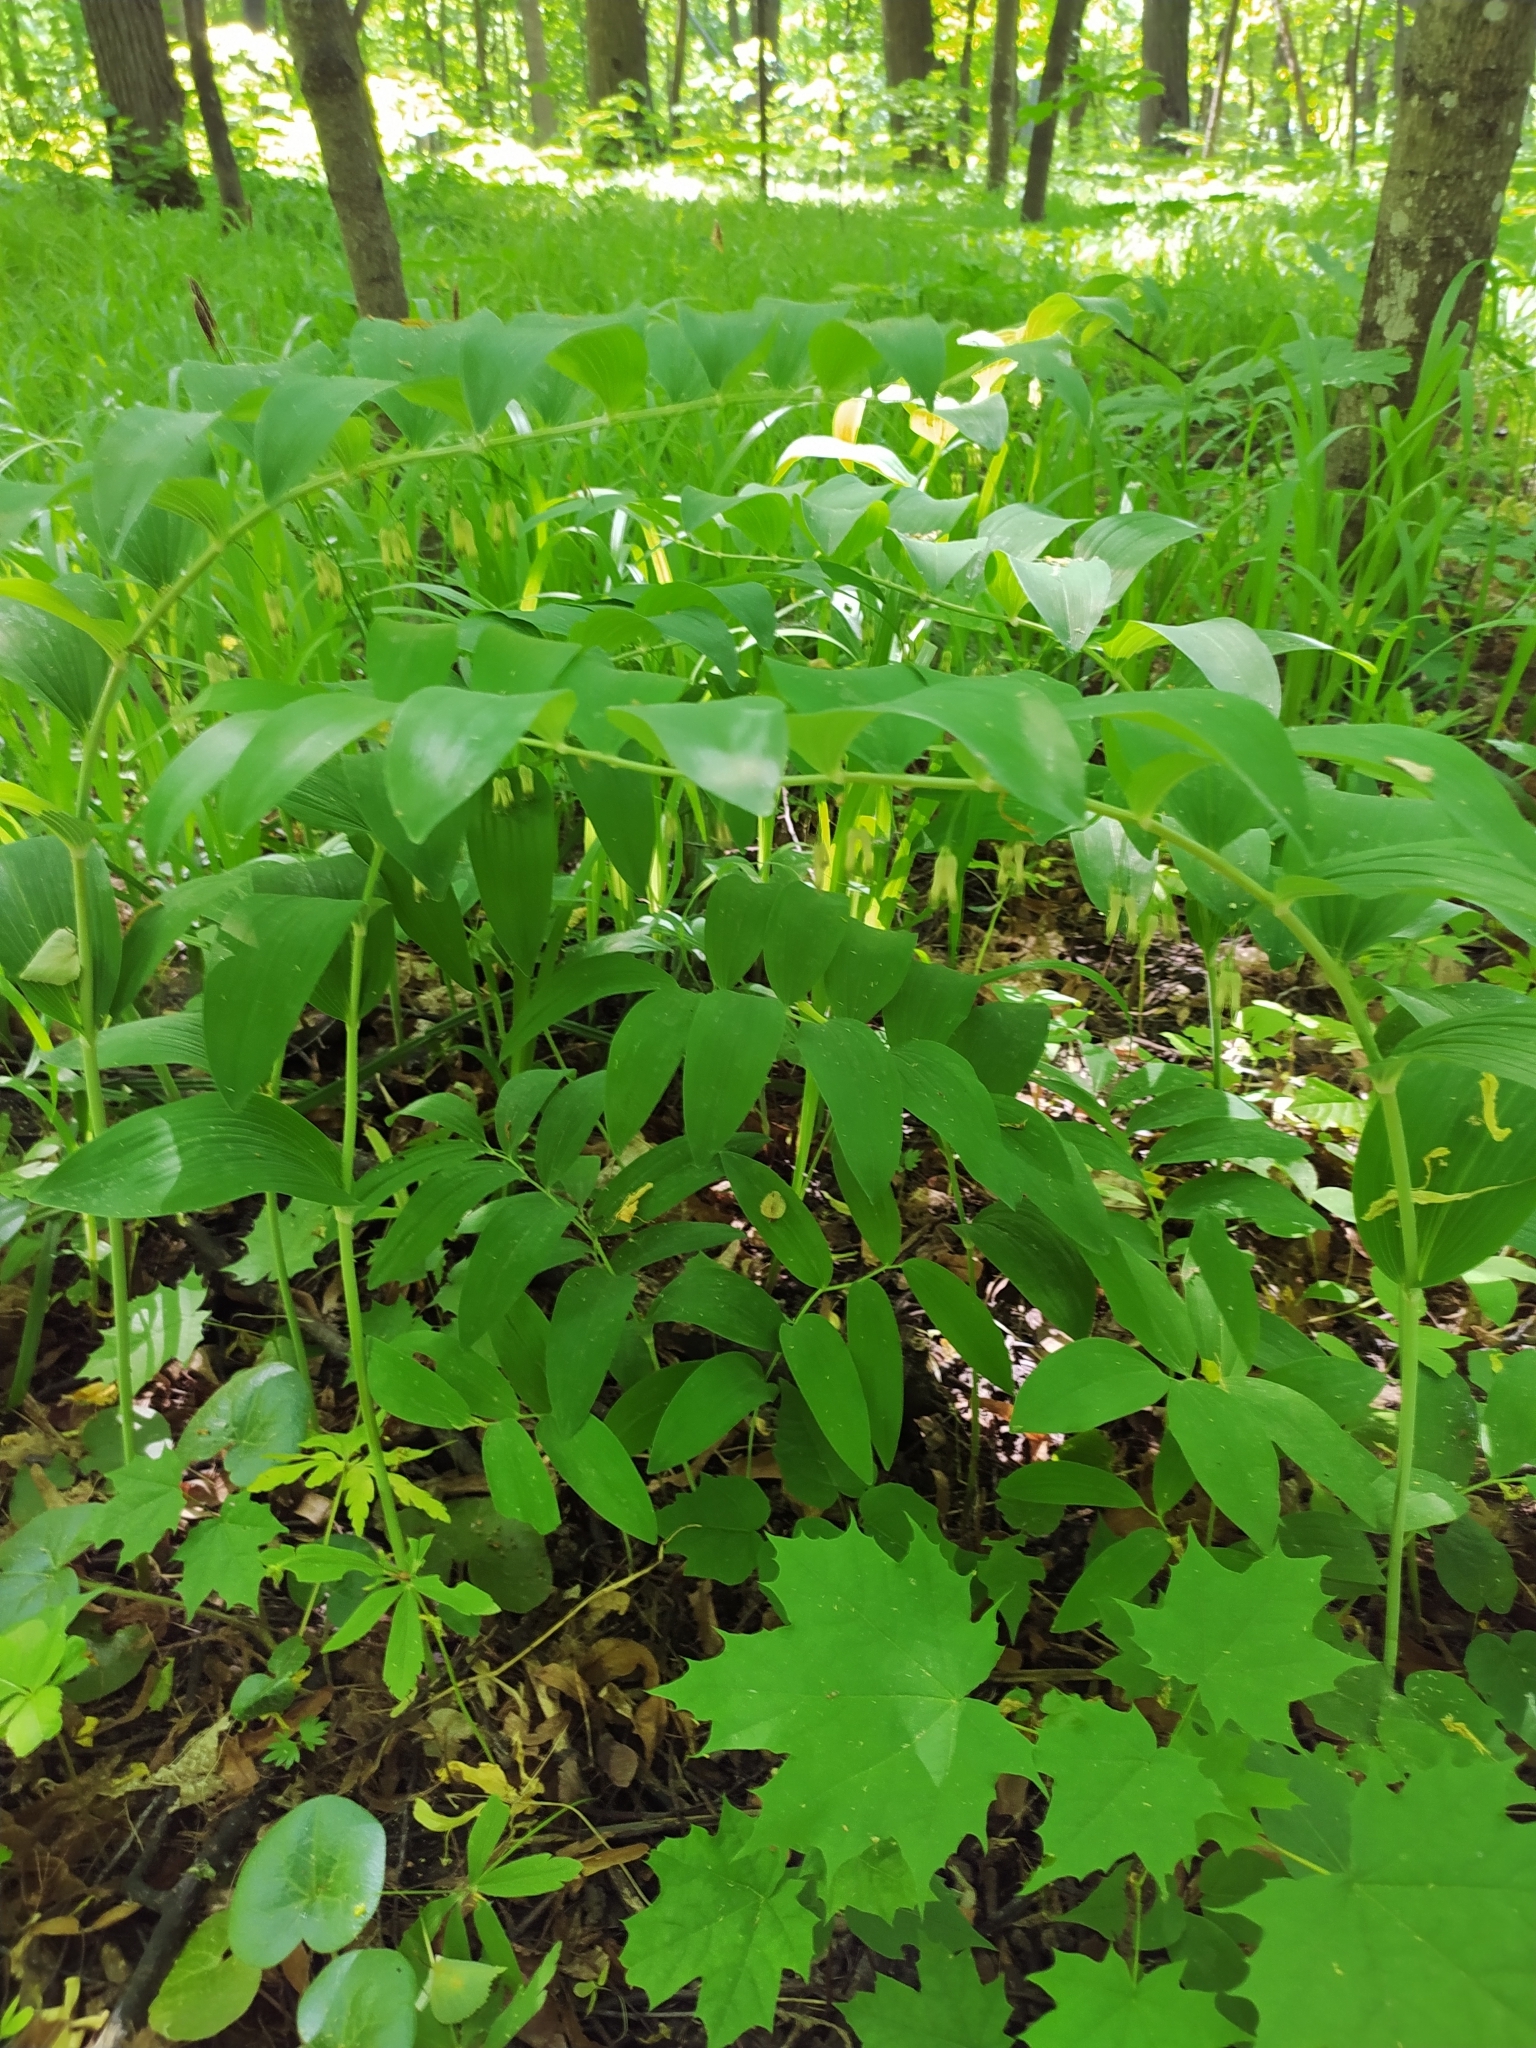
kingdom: Plantae
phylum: Tracheophyta
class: Liliopsida
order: Asparagales
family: Asparagaceae
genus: Polygonatum
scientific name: Polygonatum multiflorum
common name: Solomon's-seal
